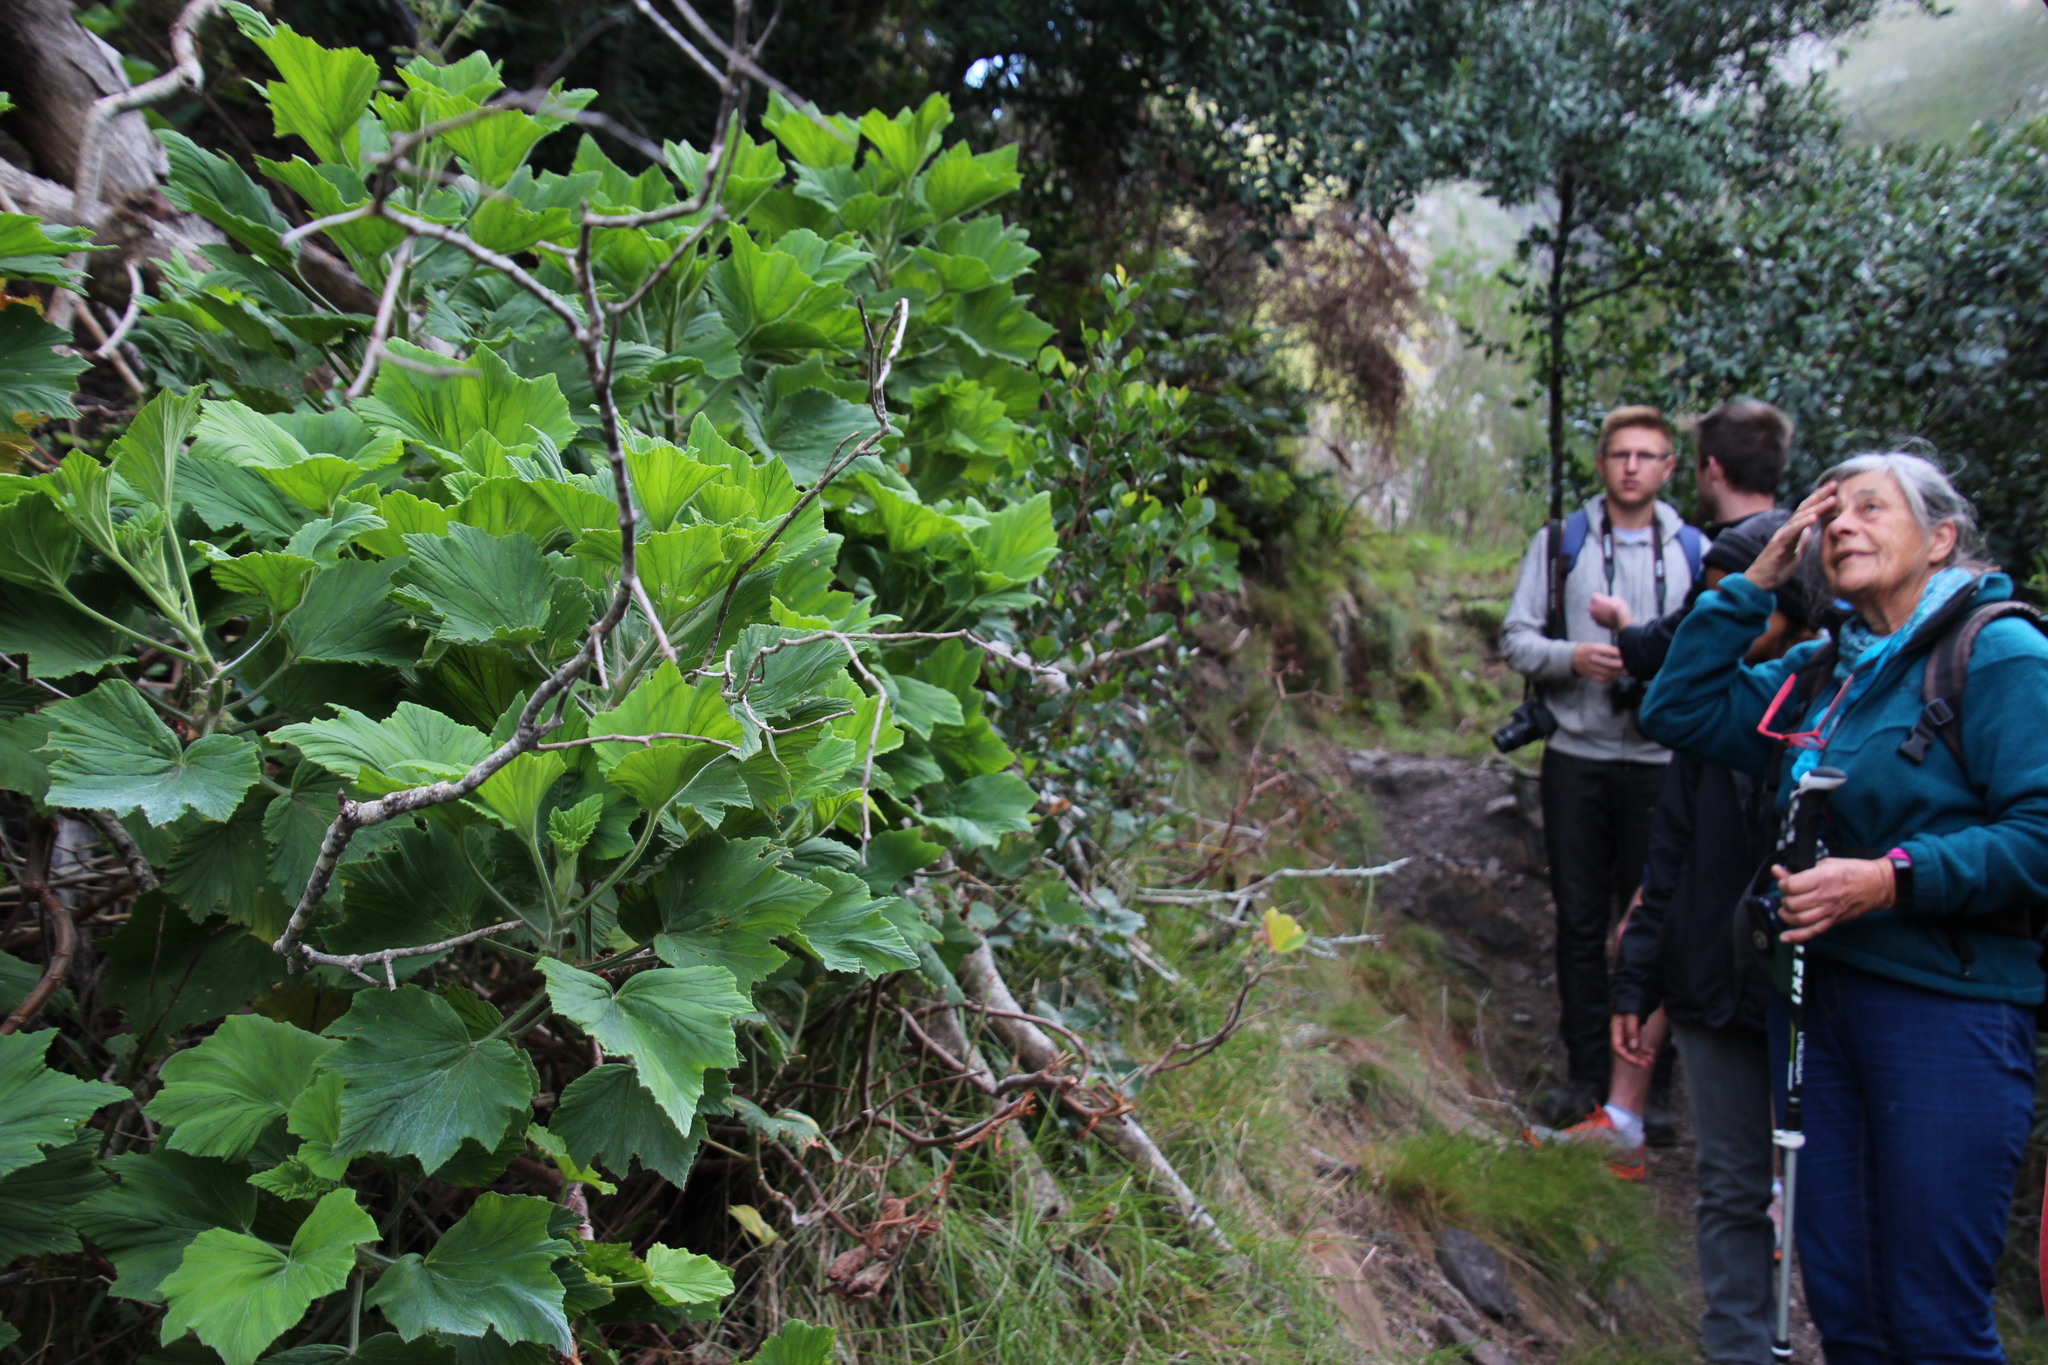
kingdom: Plantae
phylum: Tracheophyta
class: Magnoliopsida
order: Geraniales
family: Geraniaceae
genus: Pelargonium
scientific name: Pelargonium papilionaceum
